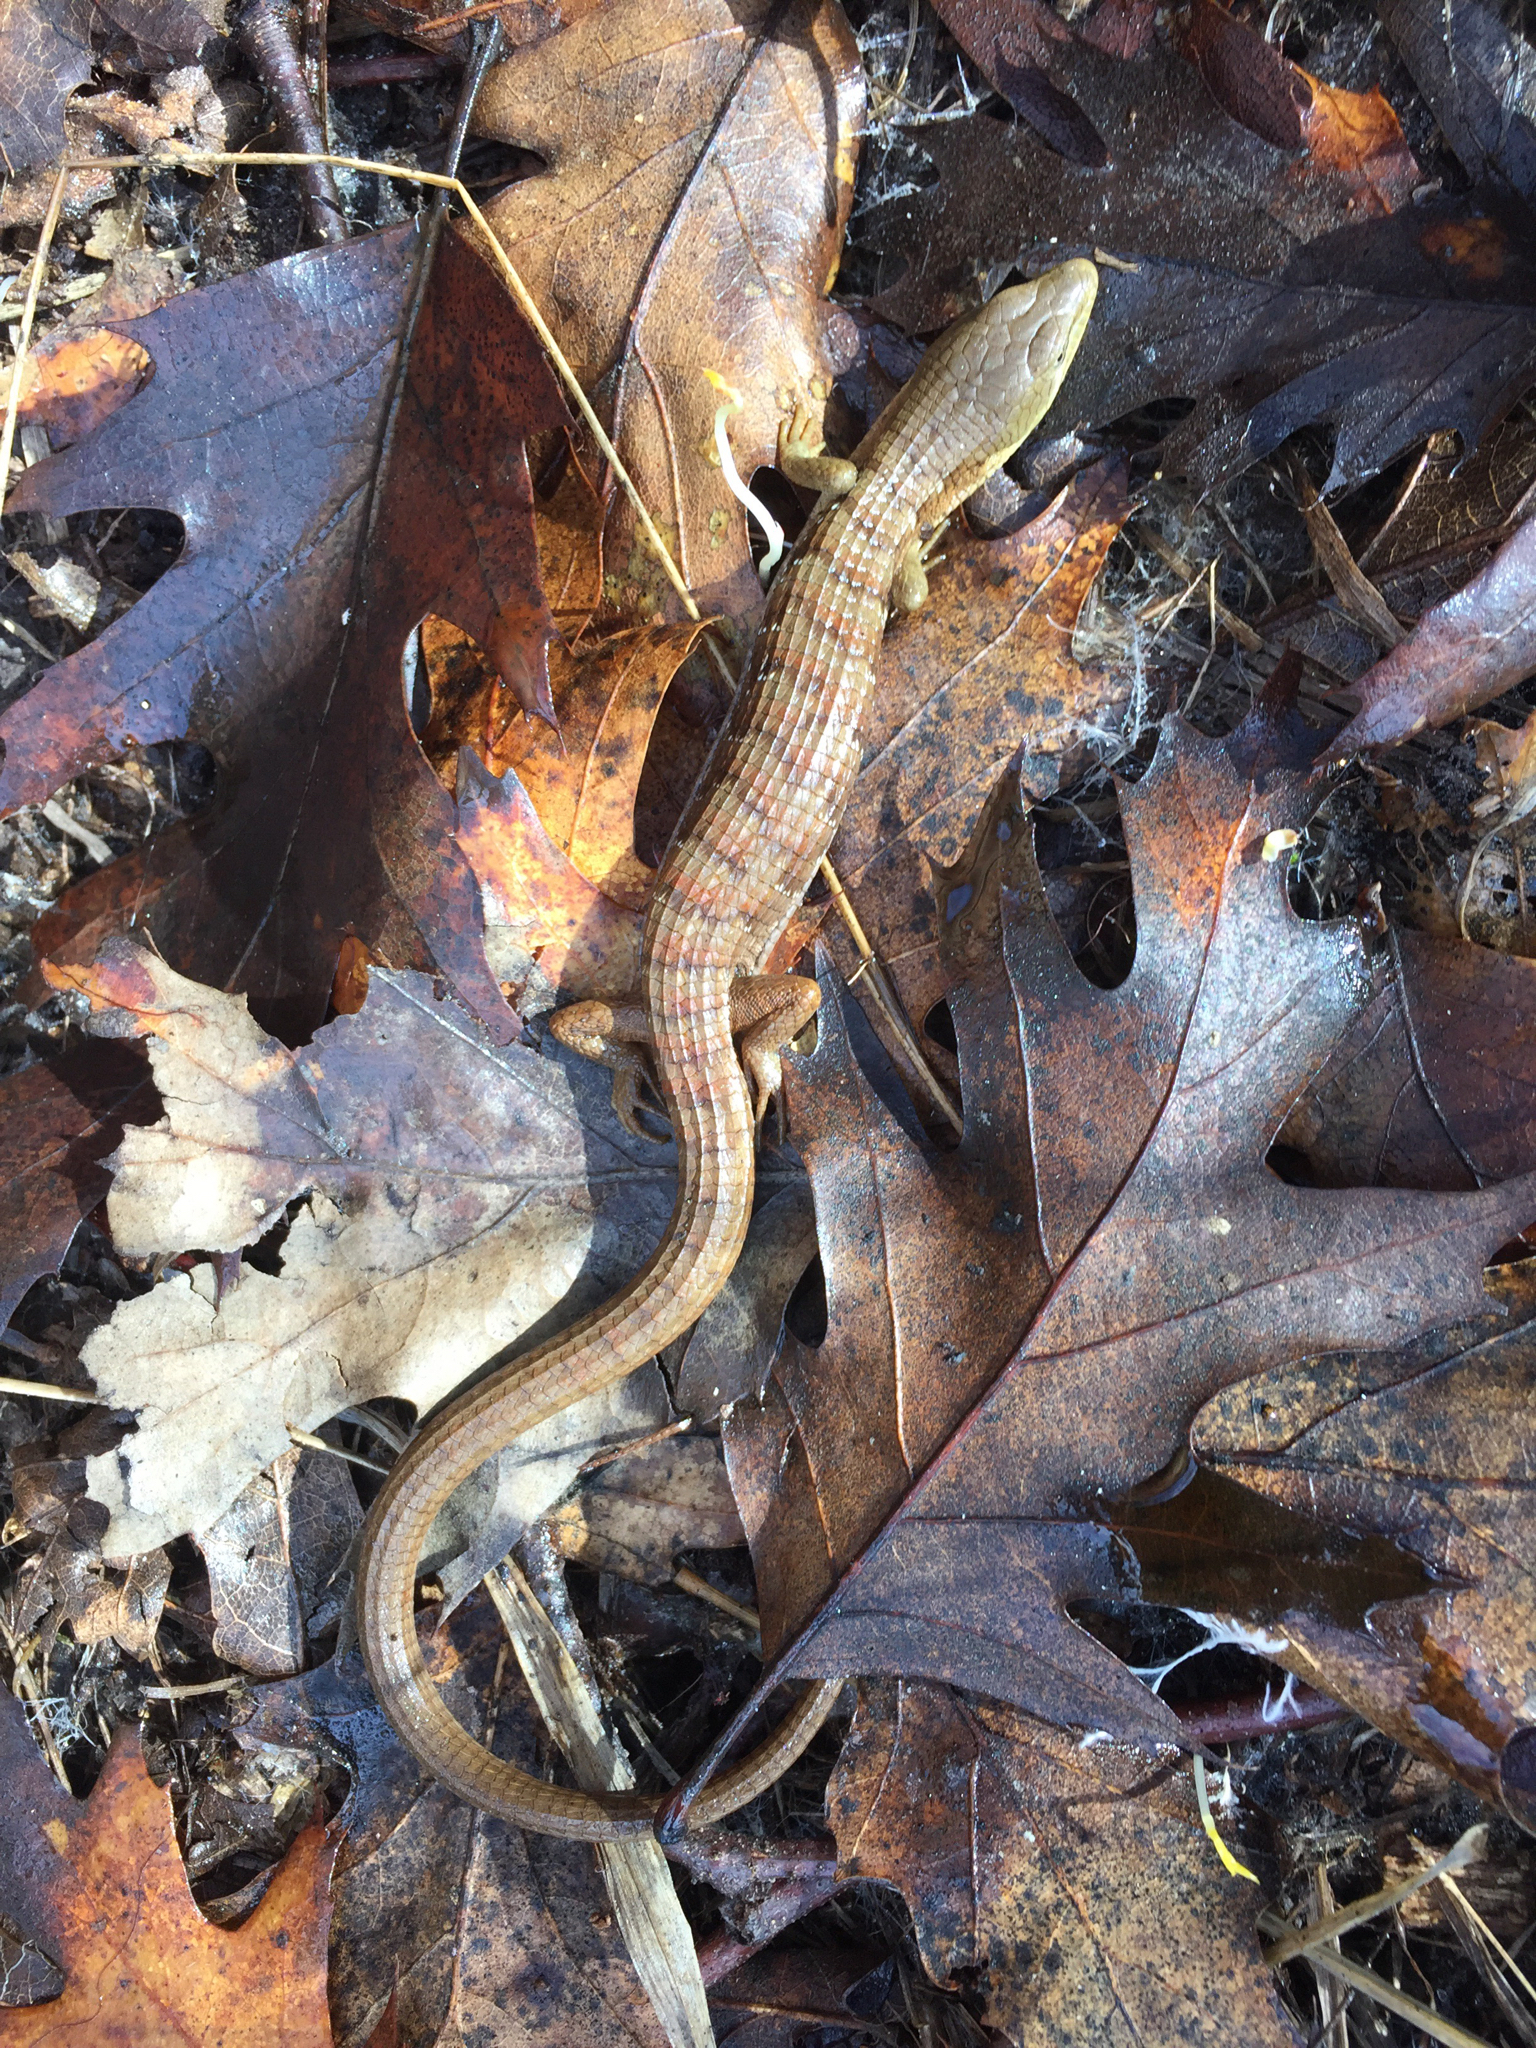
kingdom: Animalia
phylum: Chordata
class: Squamata
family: Anguidae
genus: Elgaria
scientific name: Elgaria multicarinata
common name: Southern alligator lizard
